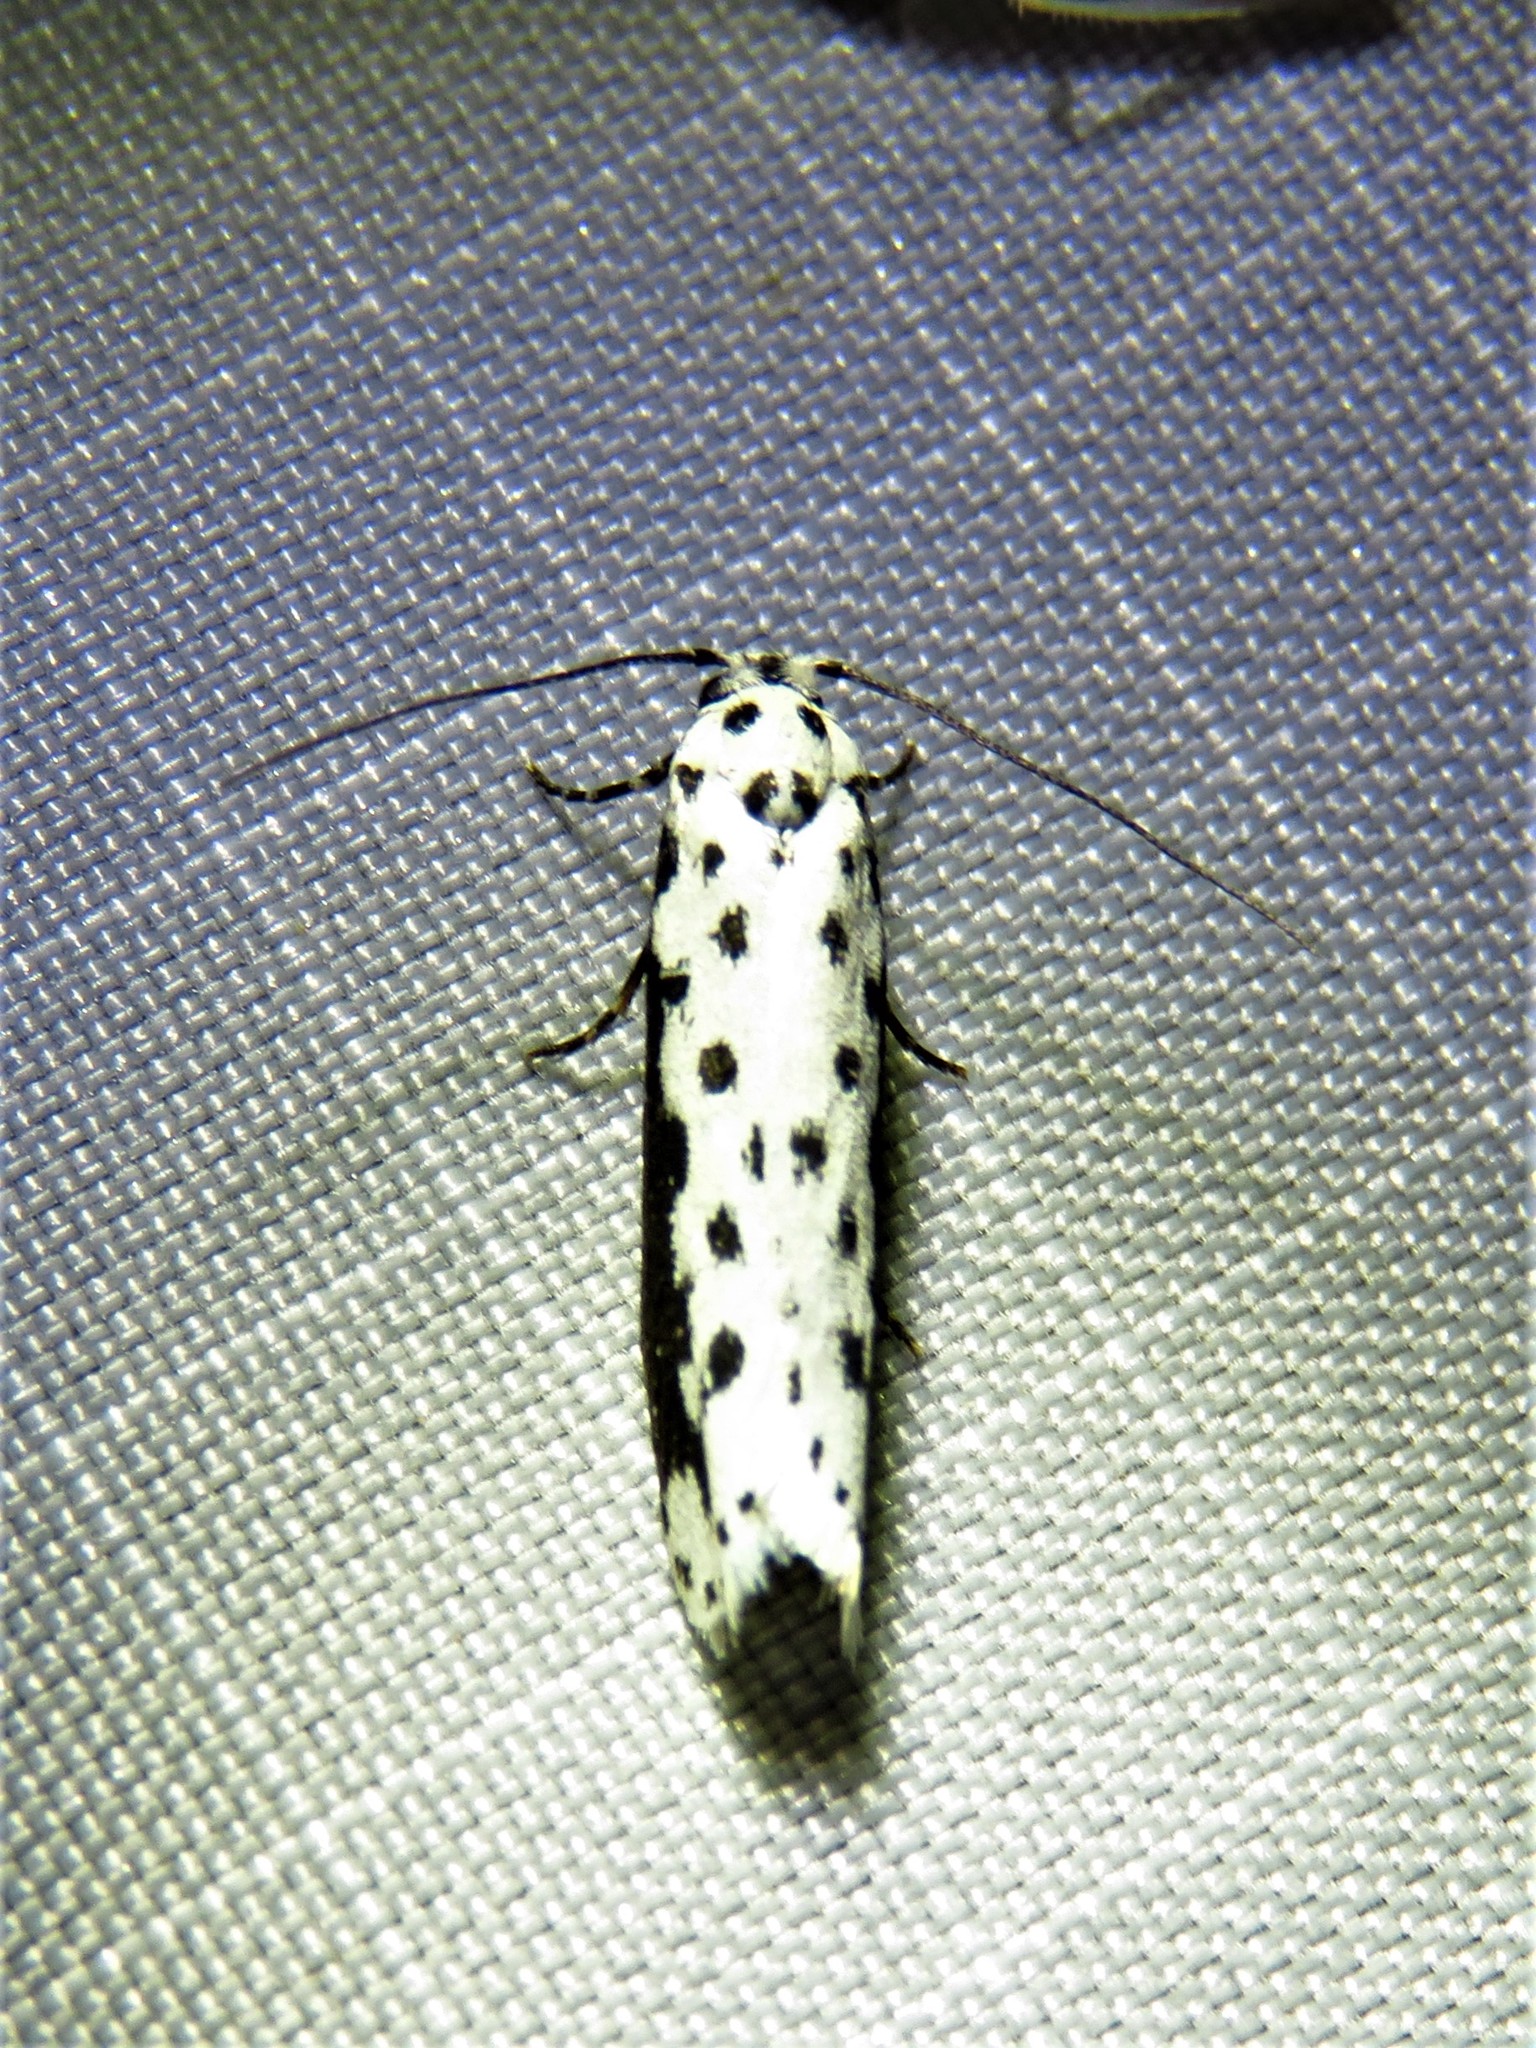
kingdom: Animalia
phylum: Arthropoda
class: Insecta
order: Lepidoptera
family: Ethmiidae
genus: Ethmia
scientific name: Ethmia hagenella
